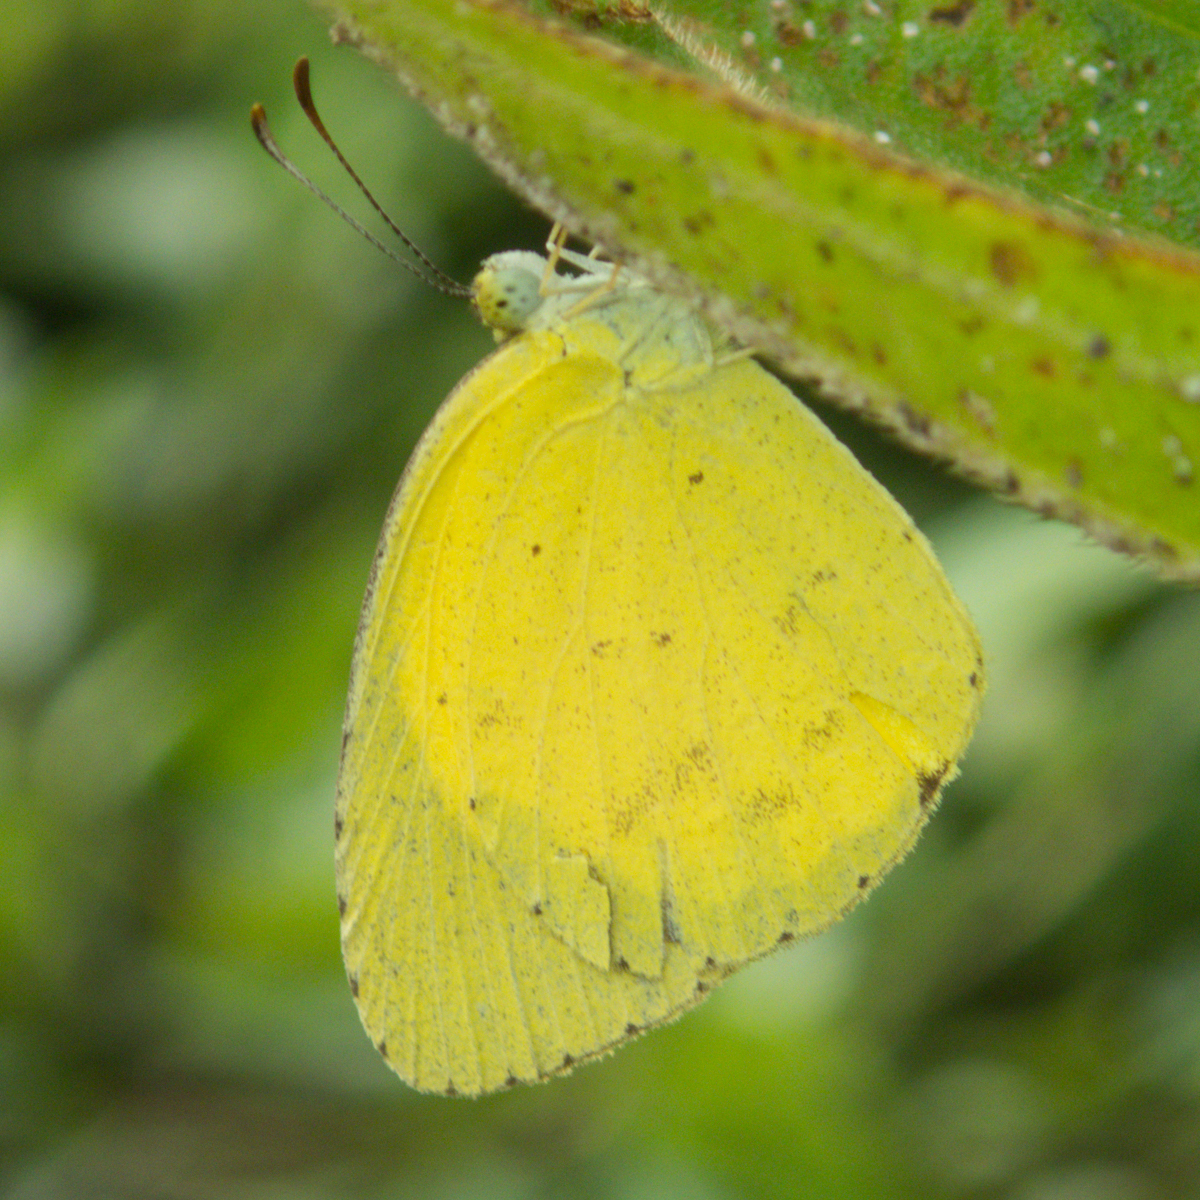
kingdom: Animalia
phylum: Arthropoda
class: Insecta
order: Lepidoptera
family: Pieridae
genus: Eurema
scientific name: Eurema brigitta
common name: Small grass yellow
